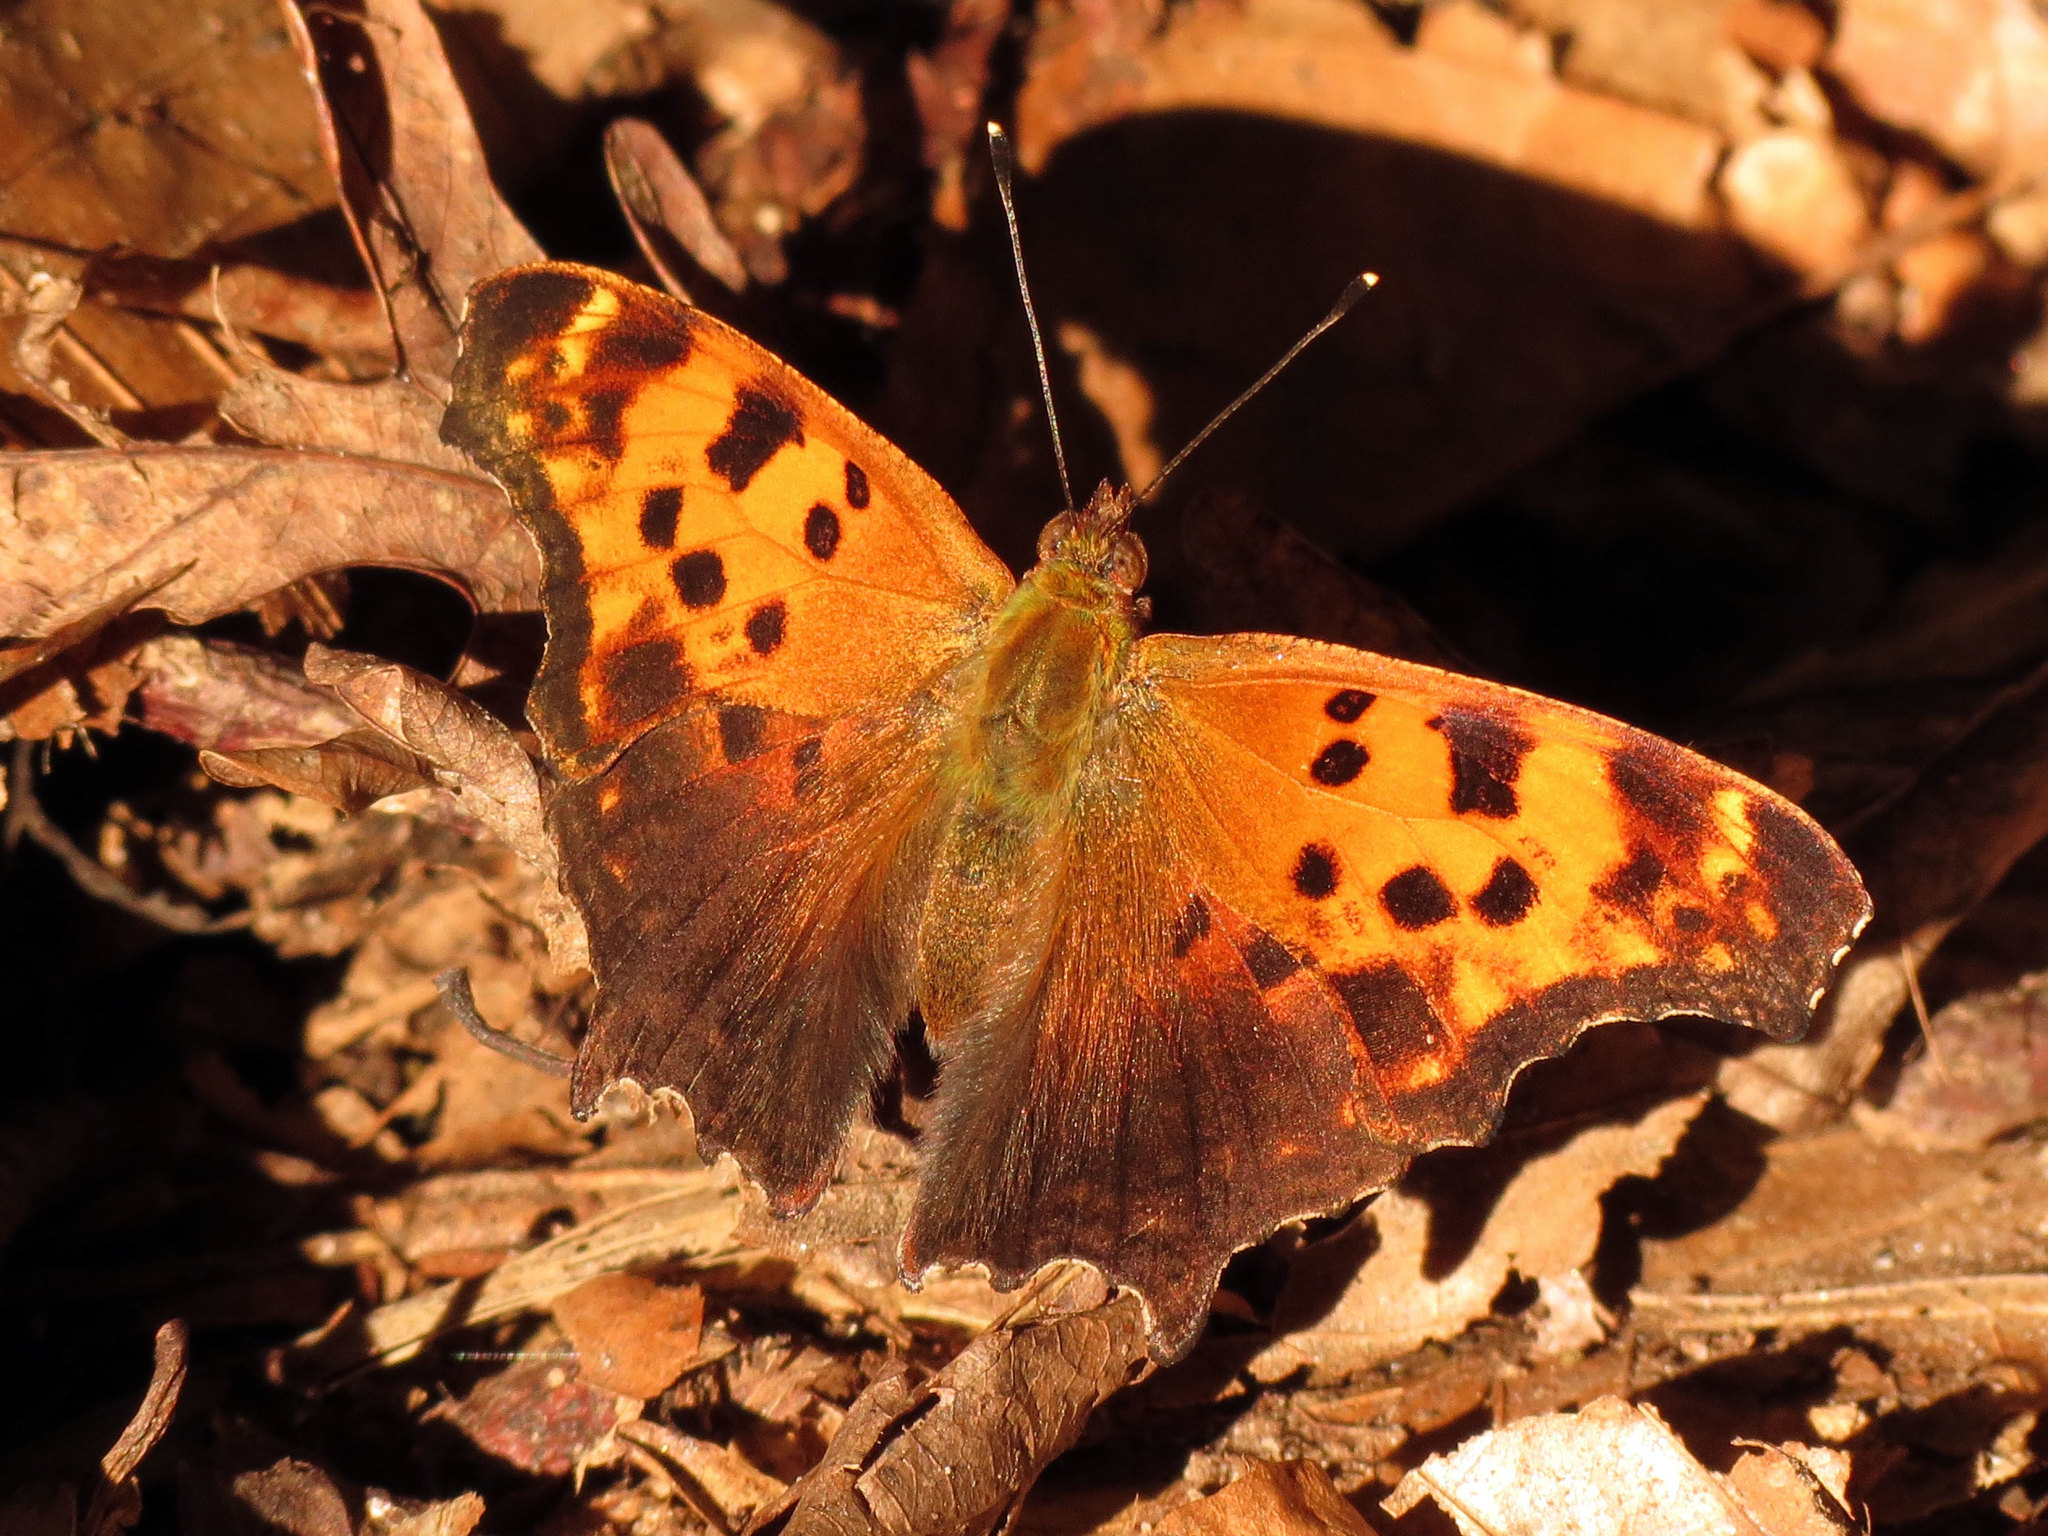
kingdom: Animalia
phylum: Arthropoda
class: Insecta
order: Lepidoptera
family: Nymphalidae
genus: Polygonia
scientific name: Polygonia comma
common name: Eastern comma
